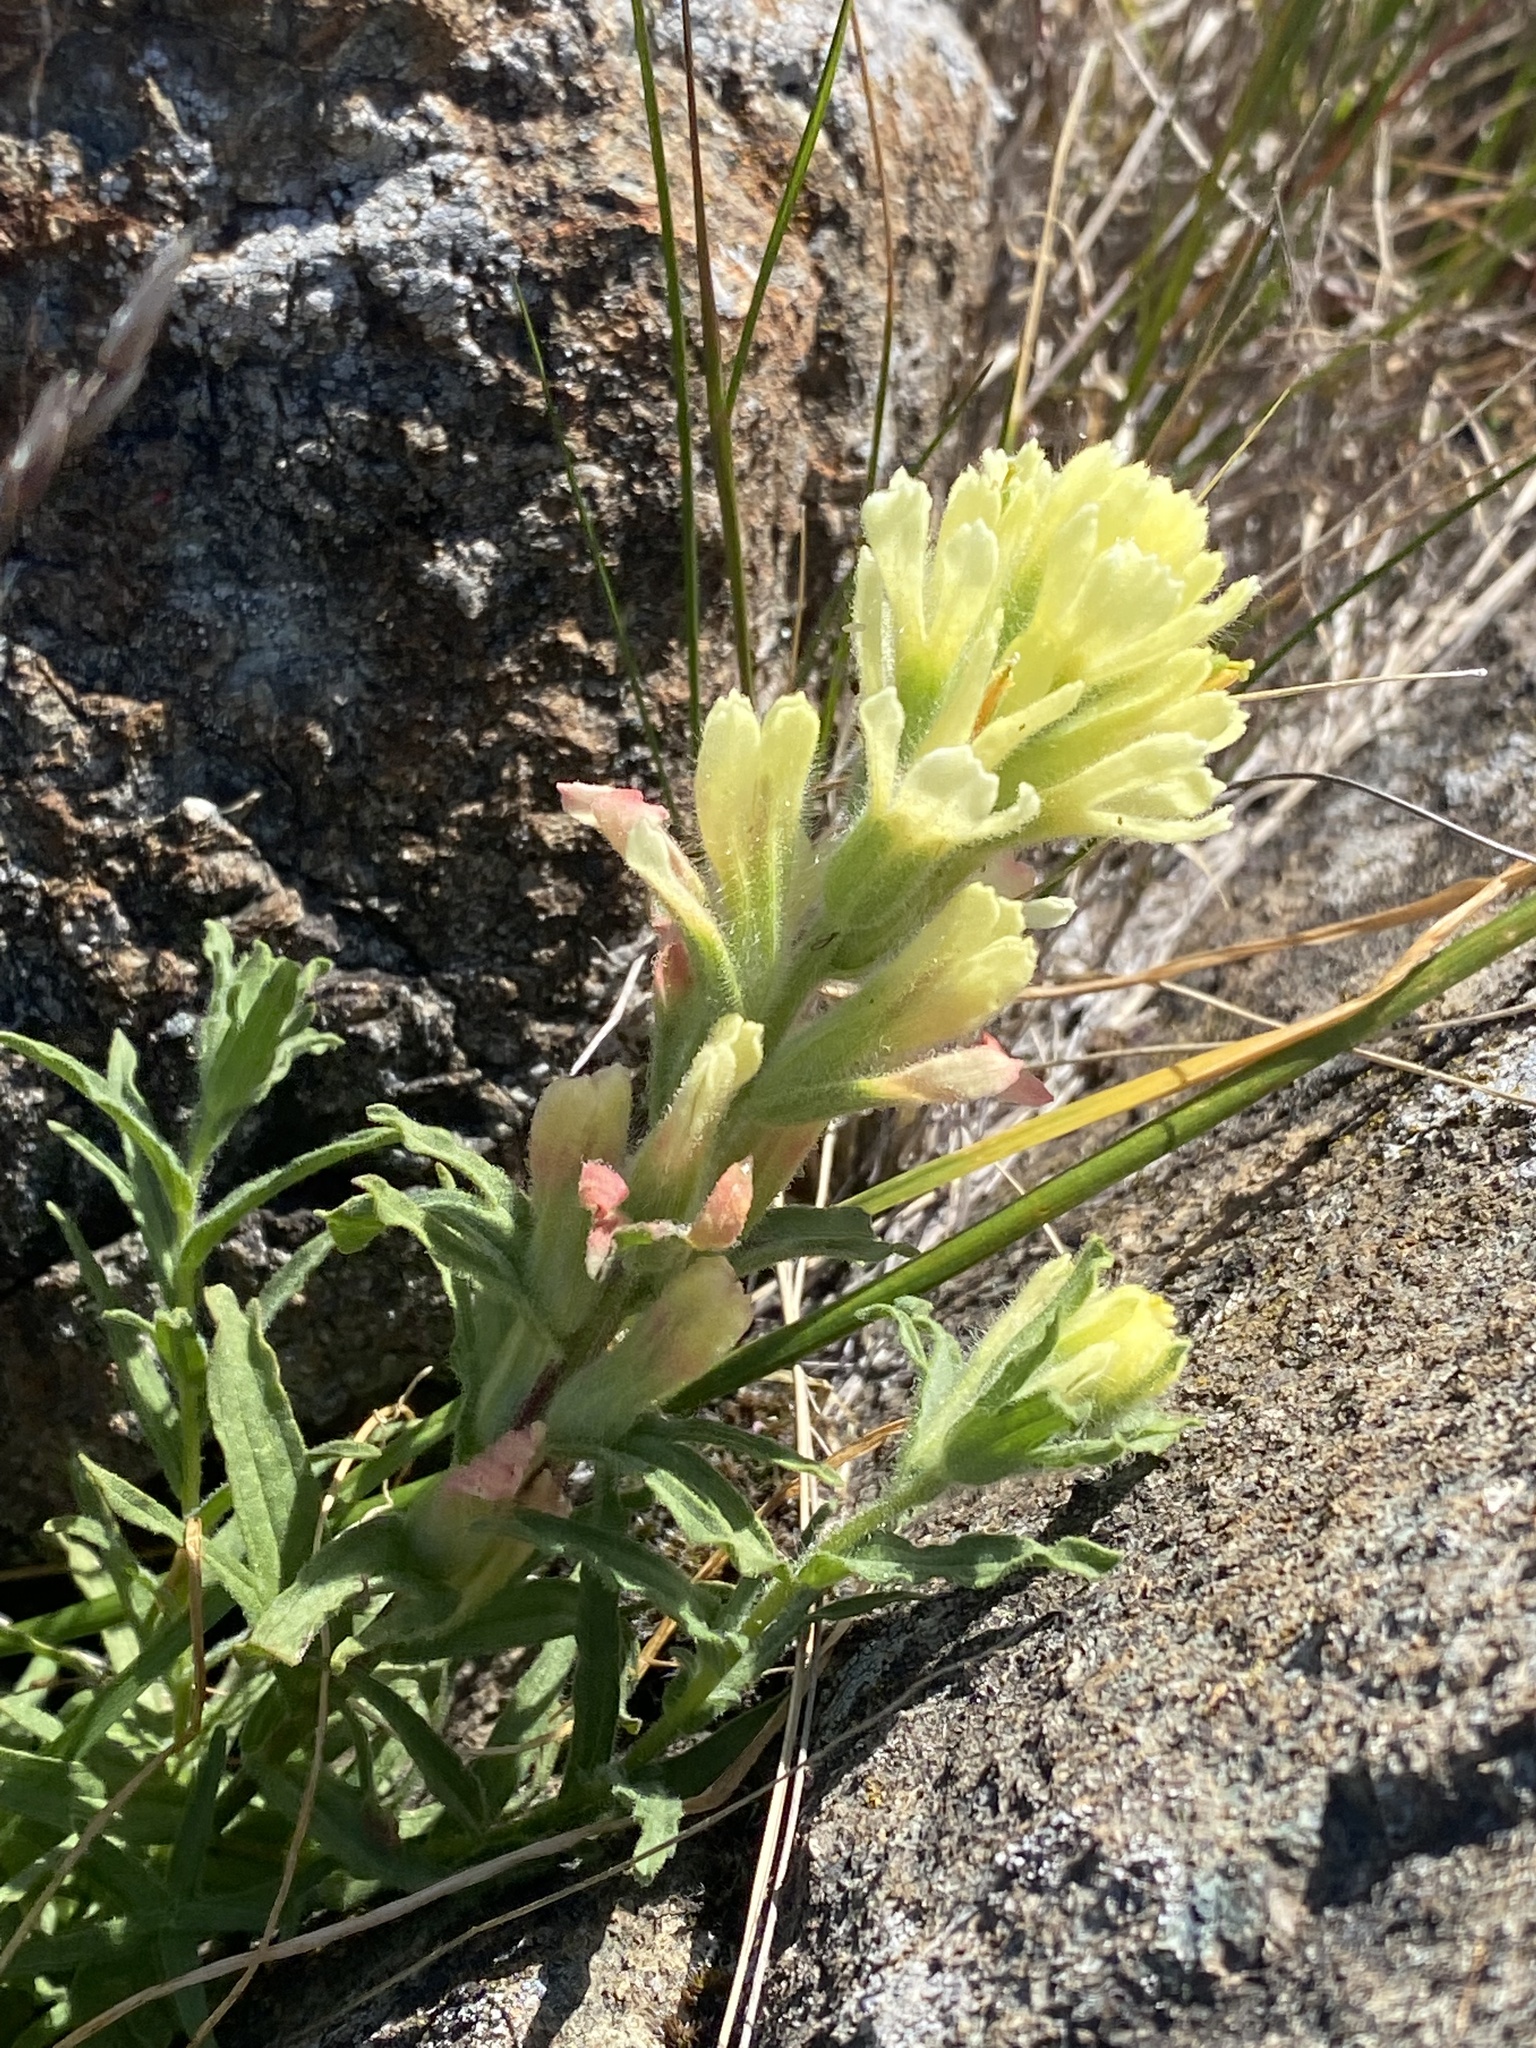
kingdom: Plantae
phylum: Tracheophyta
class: Magnoliopsida
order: Lamiales
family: Orobanchaceae
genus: Castilleja
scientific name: Castilleja affinis
